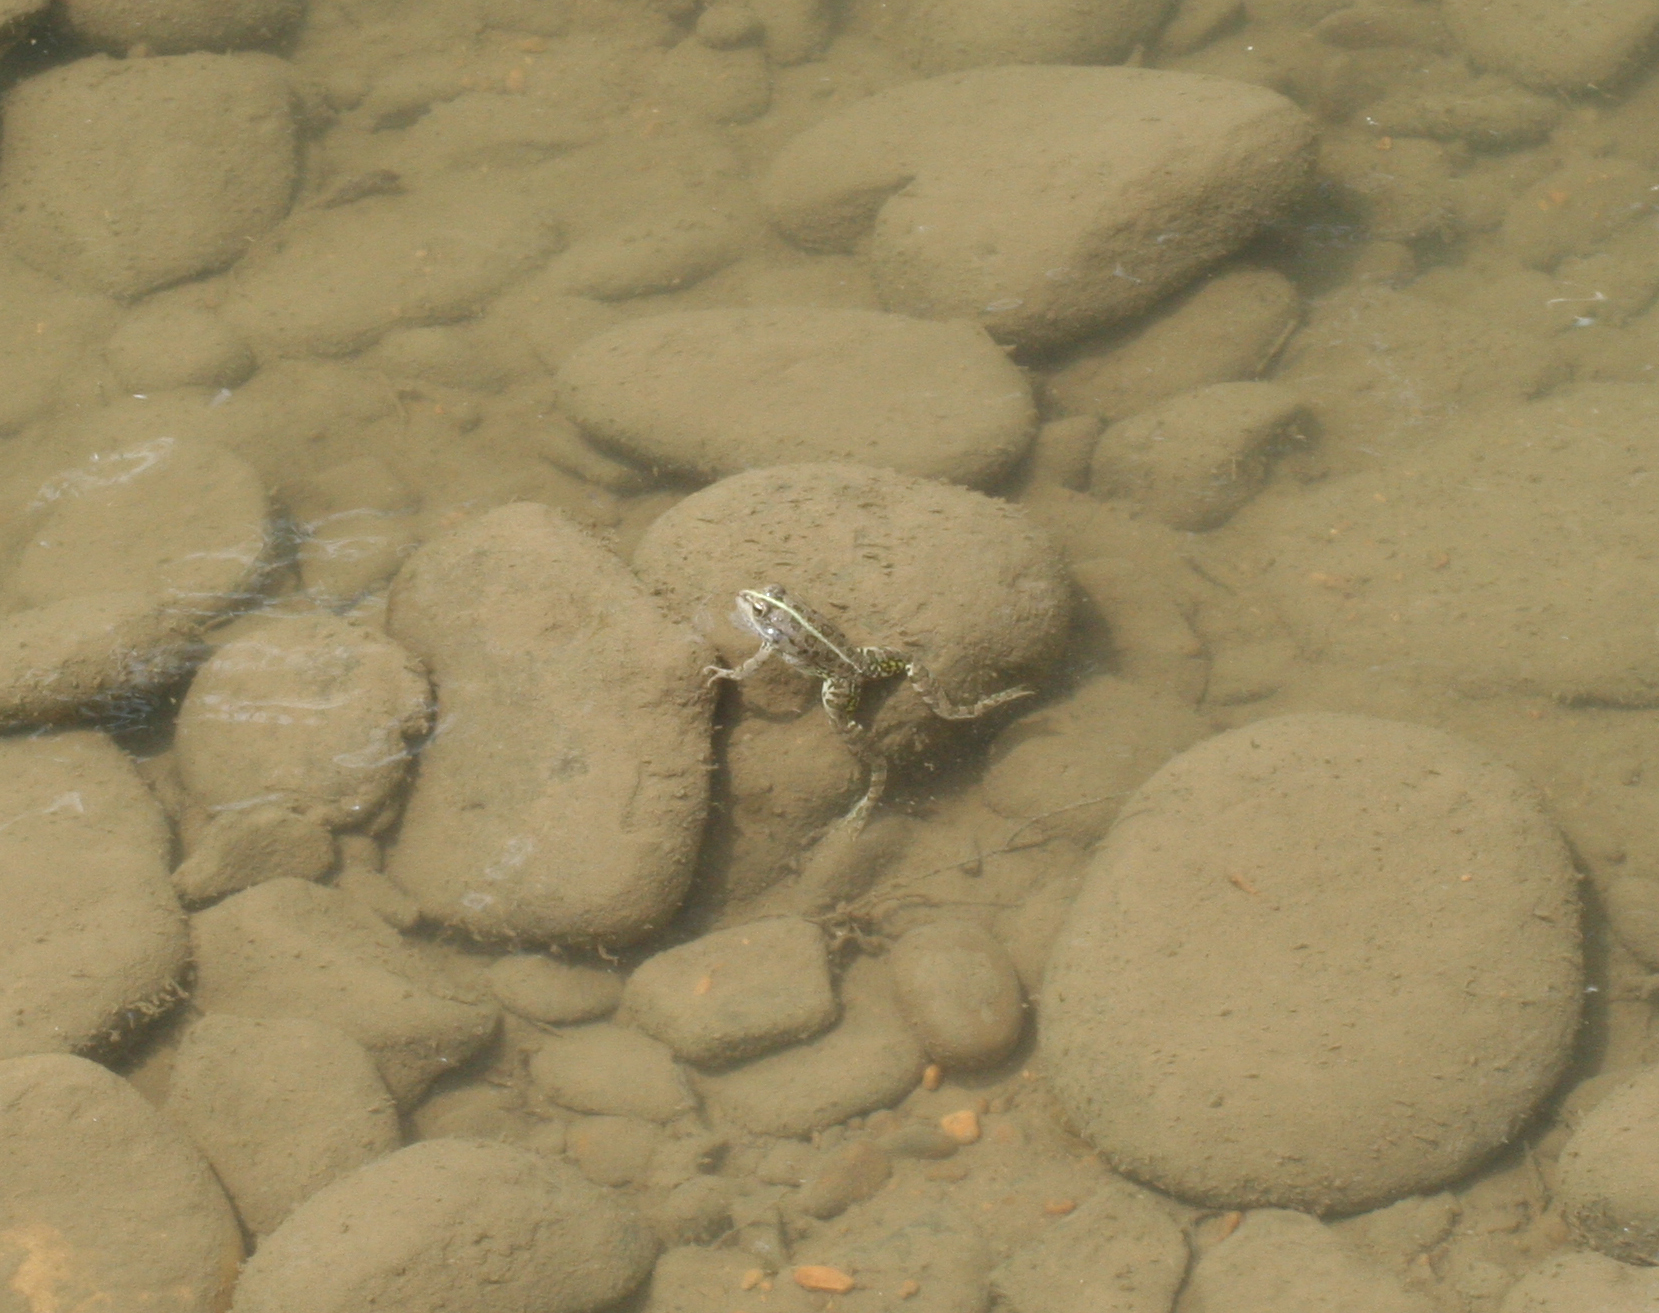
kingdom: Animalia
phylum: Chordata
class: Amphibia
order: Anura
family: Ranidae
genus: Pelophylax
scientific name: Pelophylax ridibundus
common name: Marsh frog
